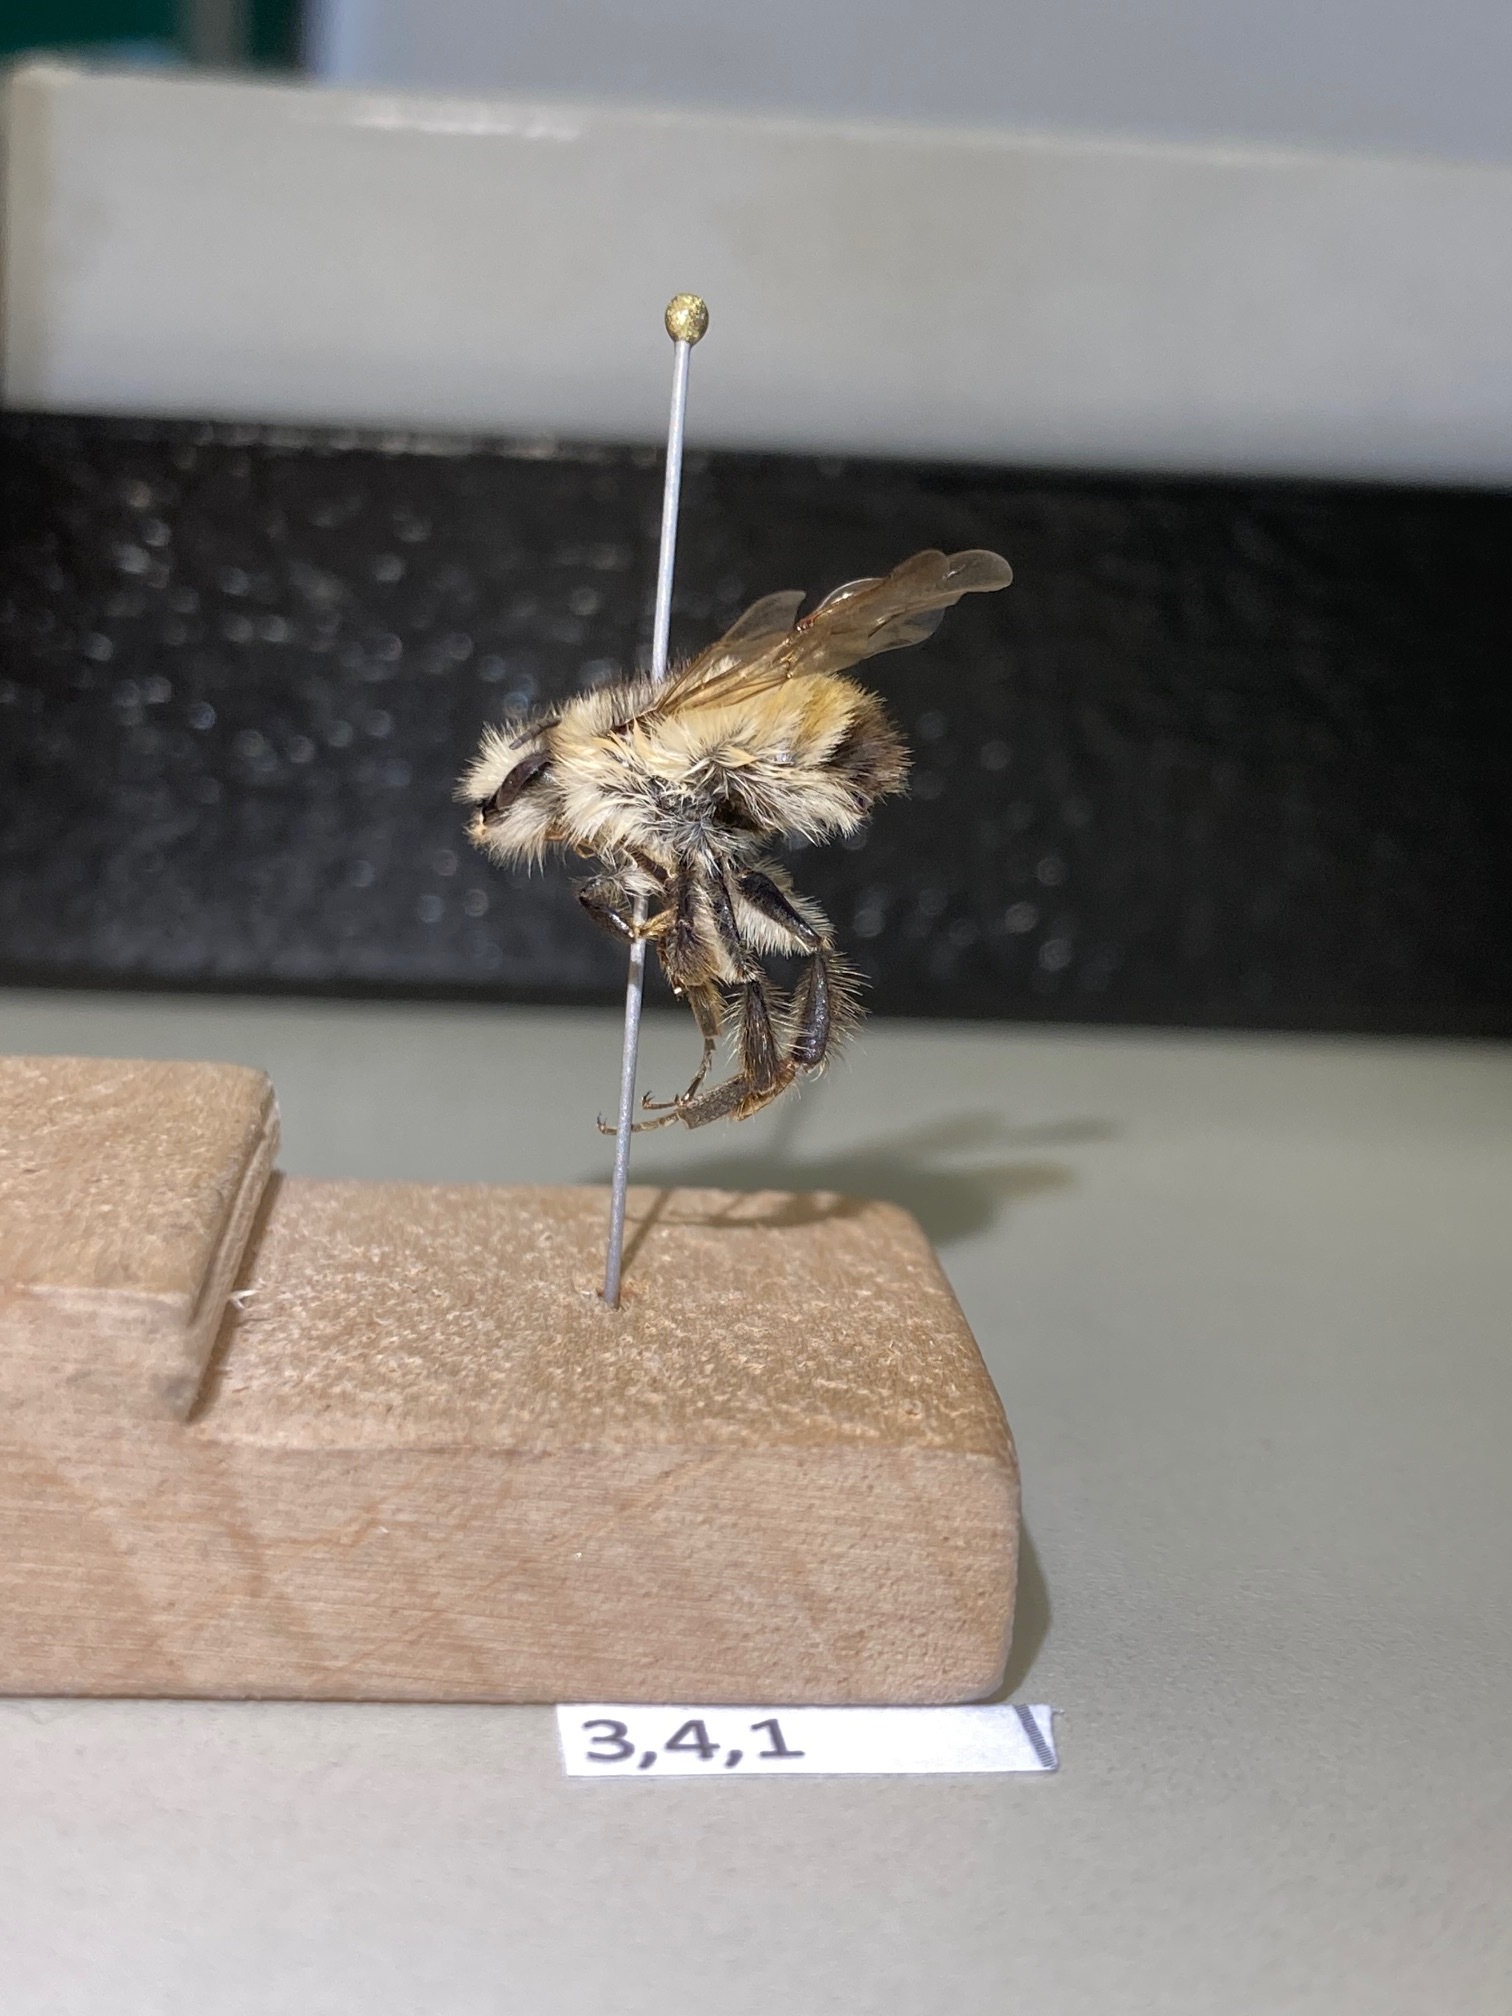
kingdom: Animalia
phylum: Arthropoda
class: Insecta
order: Hymenoptera
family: Apidae
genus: Bombus
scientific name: Bombus flavifrons
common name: Yellow head bumble bee
